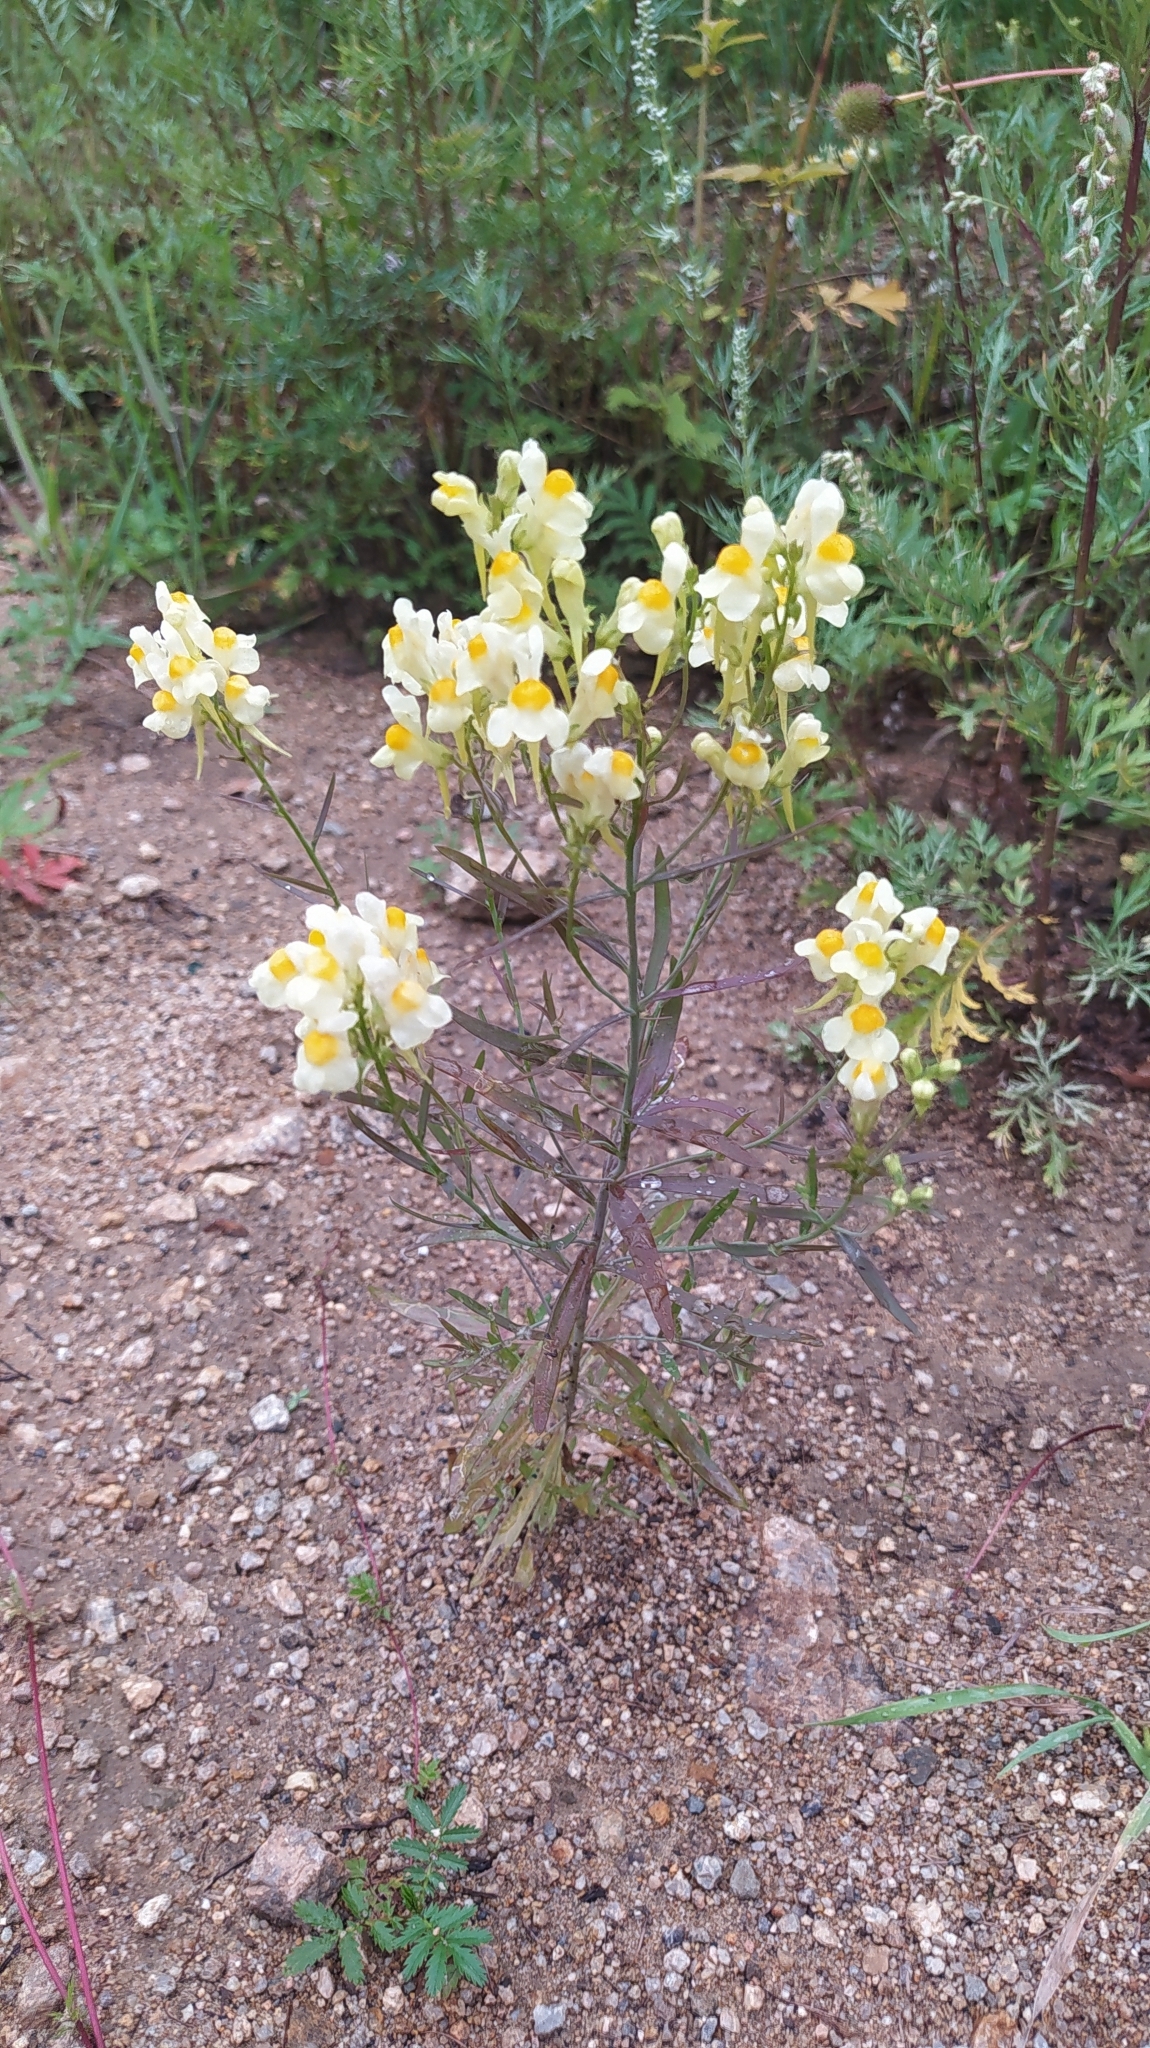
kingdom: Plantae
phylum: Tracheophyta
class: Magnoliopsida
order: Lamiales
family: Plantaginaceae
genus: Linaria
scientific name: Linaria vulgaris
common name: Butter and eggs
